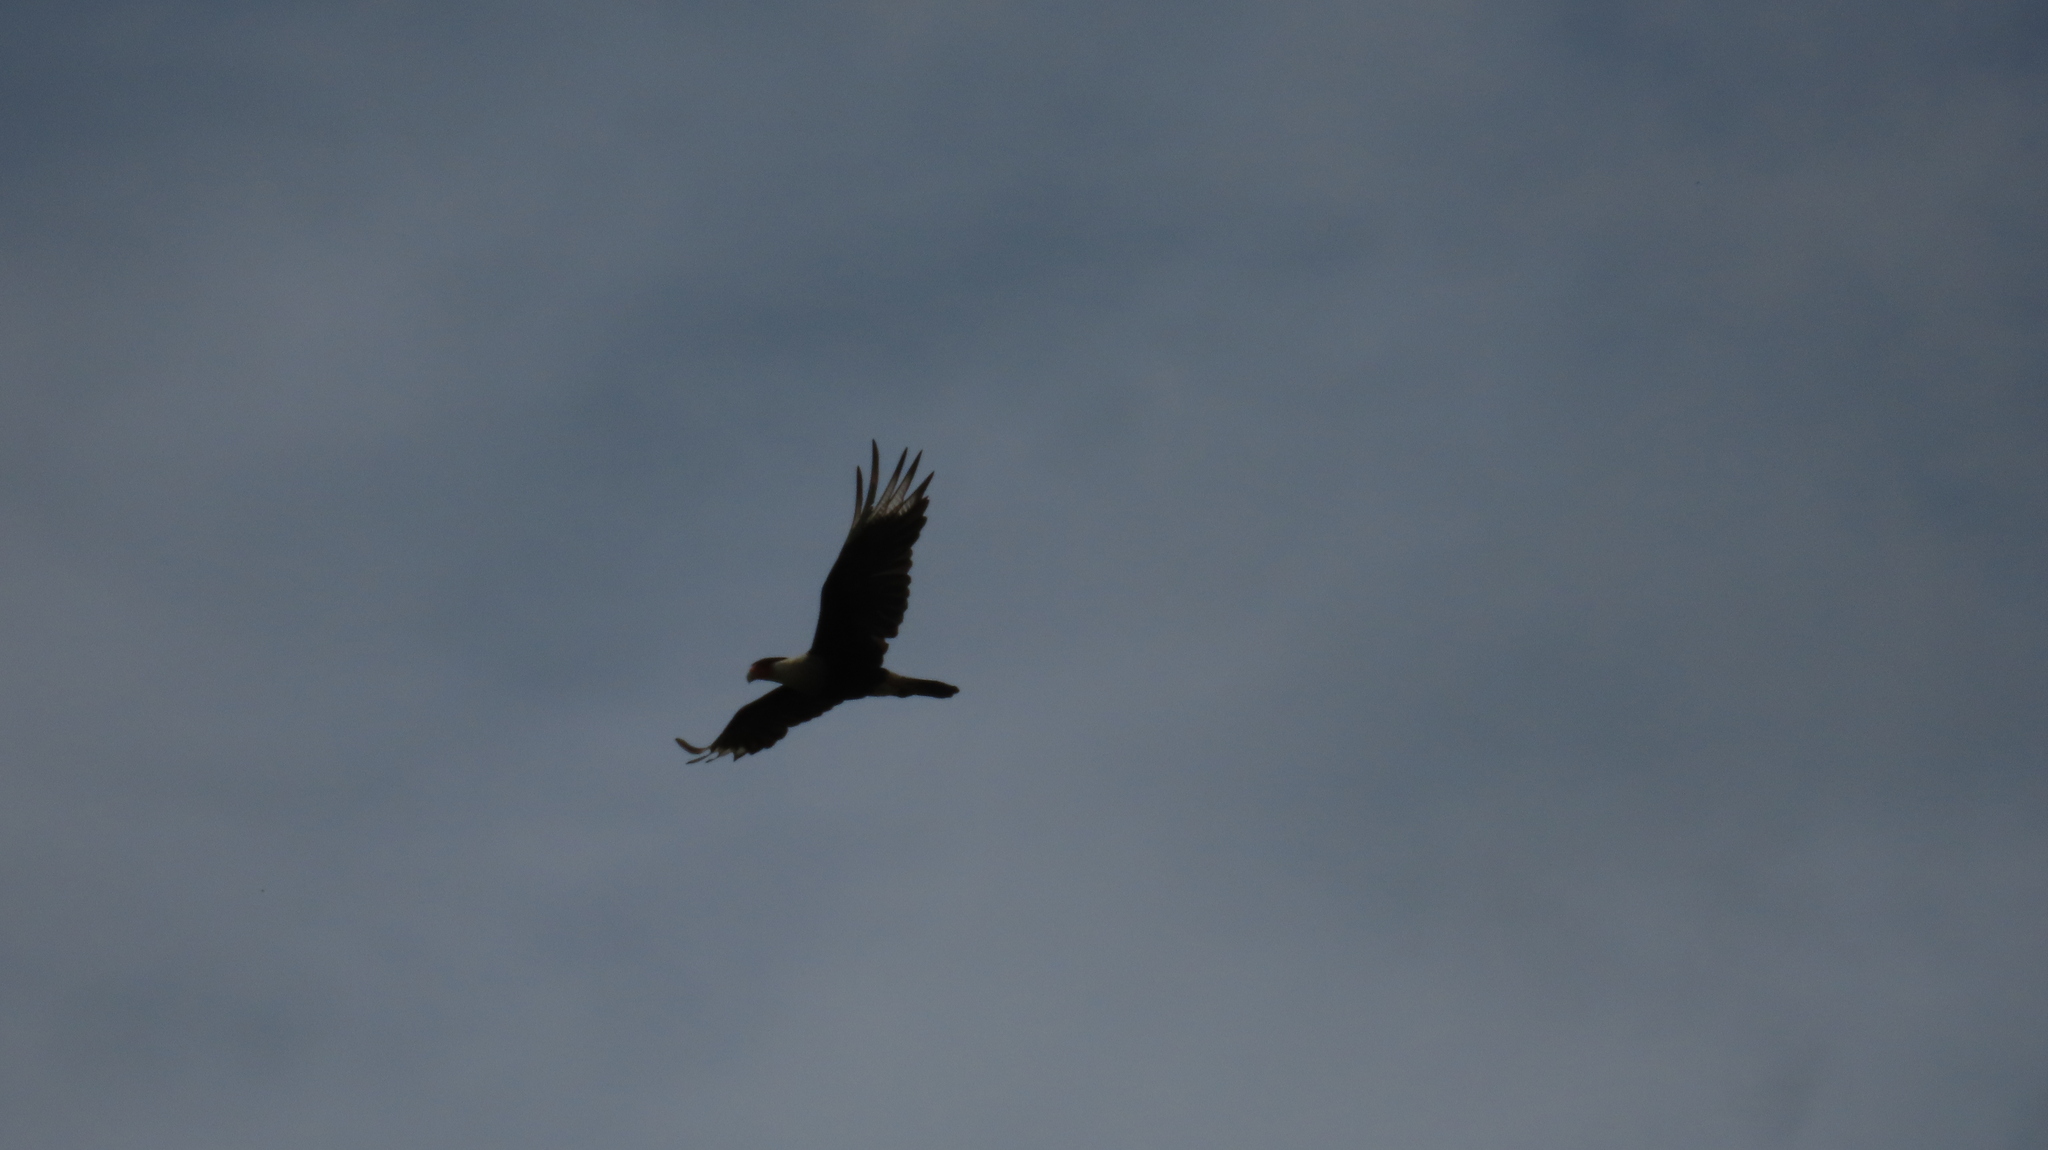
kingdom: Animalia
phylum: Chordata
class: Aves
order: Falconiformes
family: Falconidae
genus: Caracara
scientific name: Caracara plancus
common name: Southern caracara
